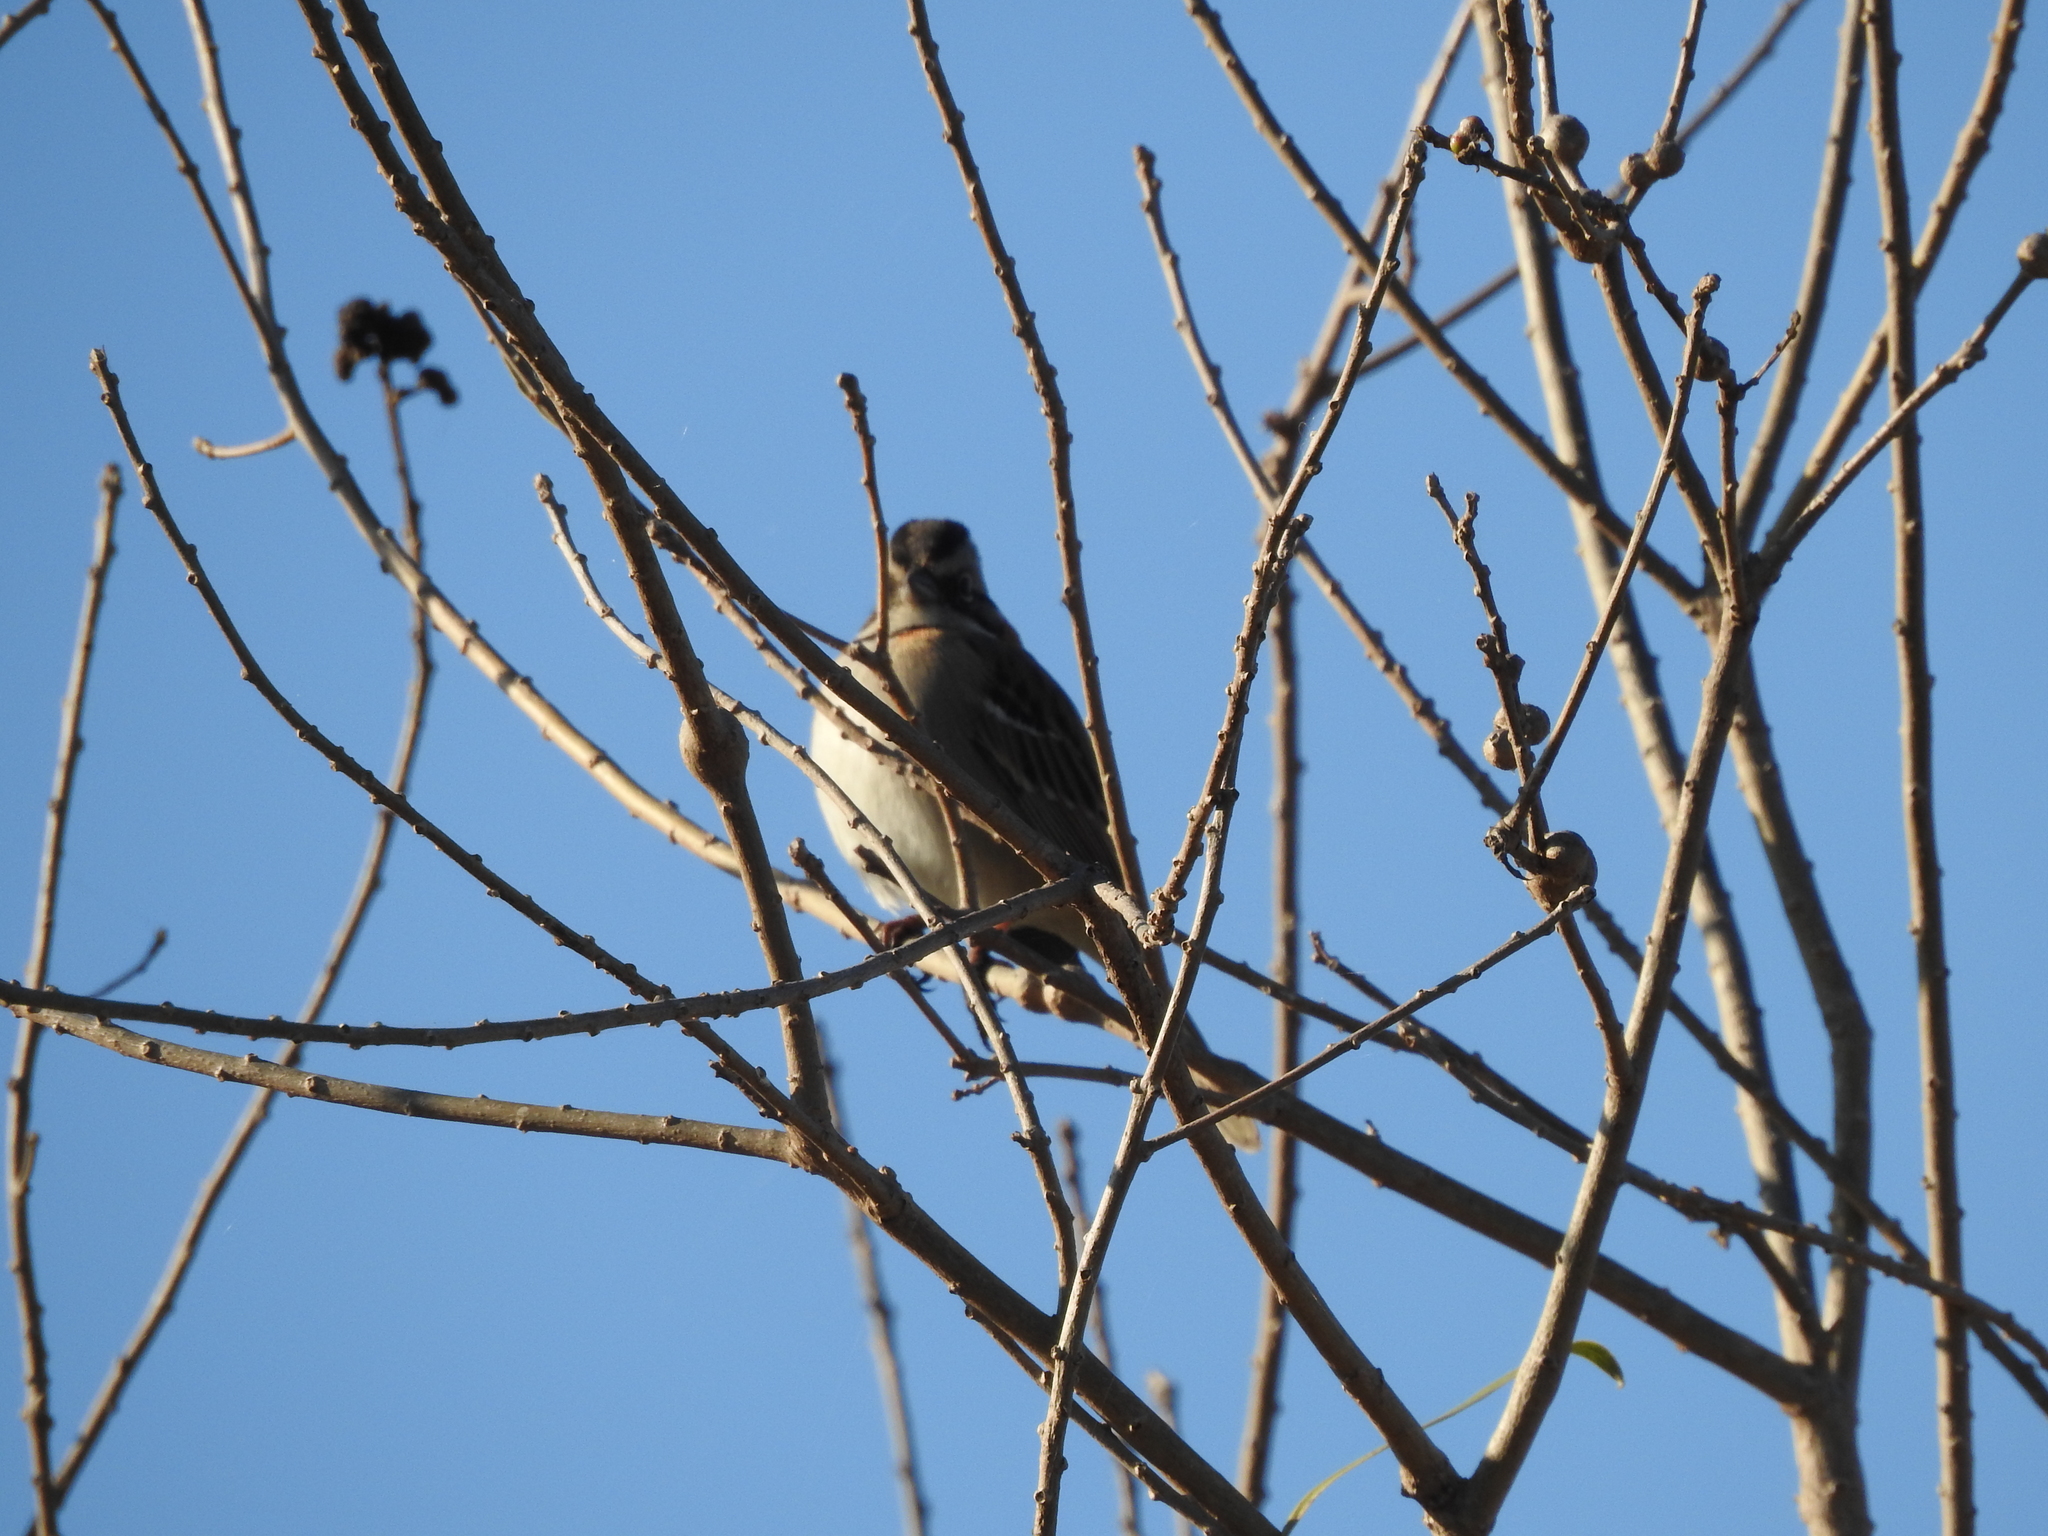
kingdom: Animalia
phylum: Chordata
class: Aves
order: Passeriformes
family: Passerellidae
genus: Zonotrichia
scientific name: Zonotrichia capensis
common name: Rufous-collared sparrow
